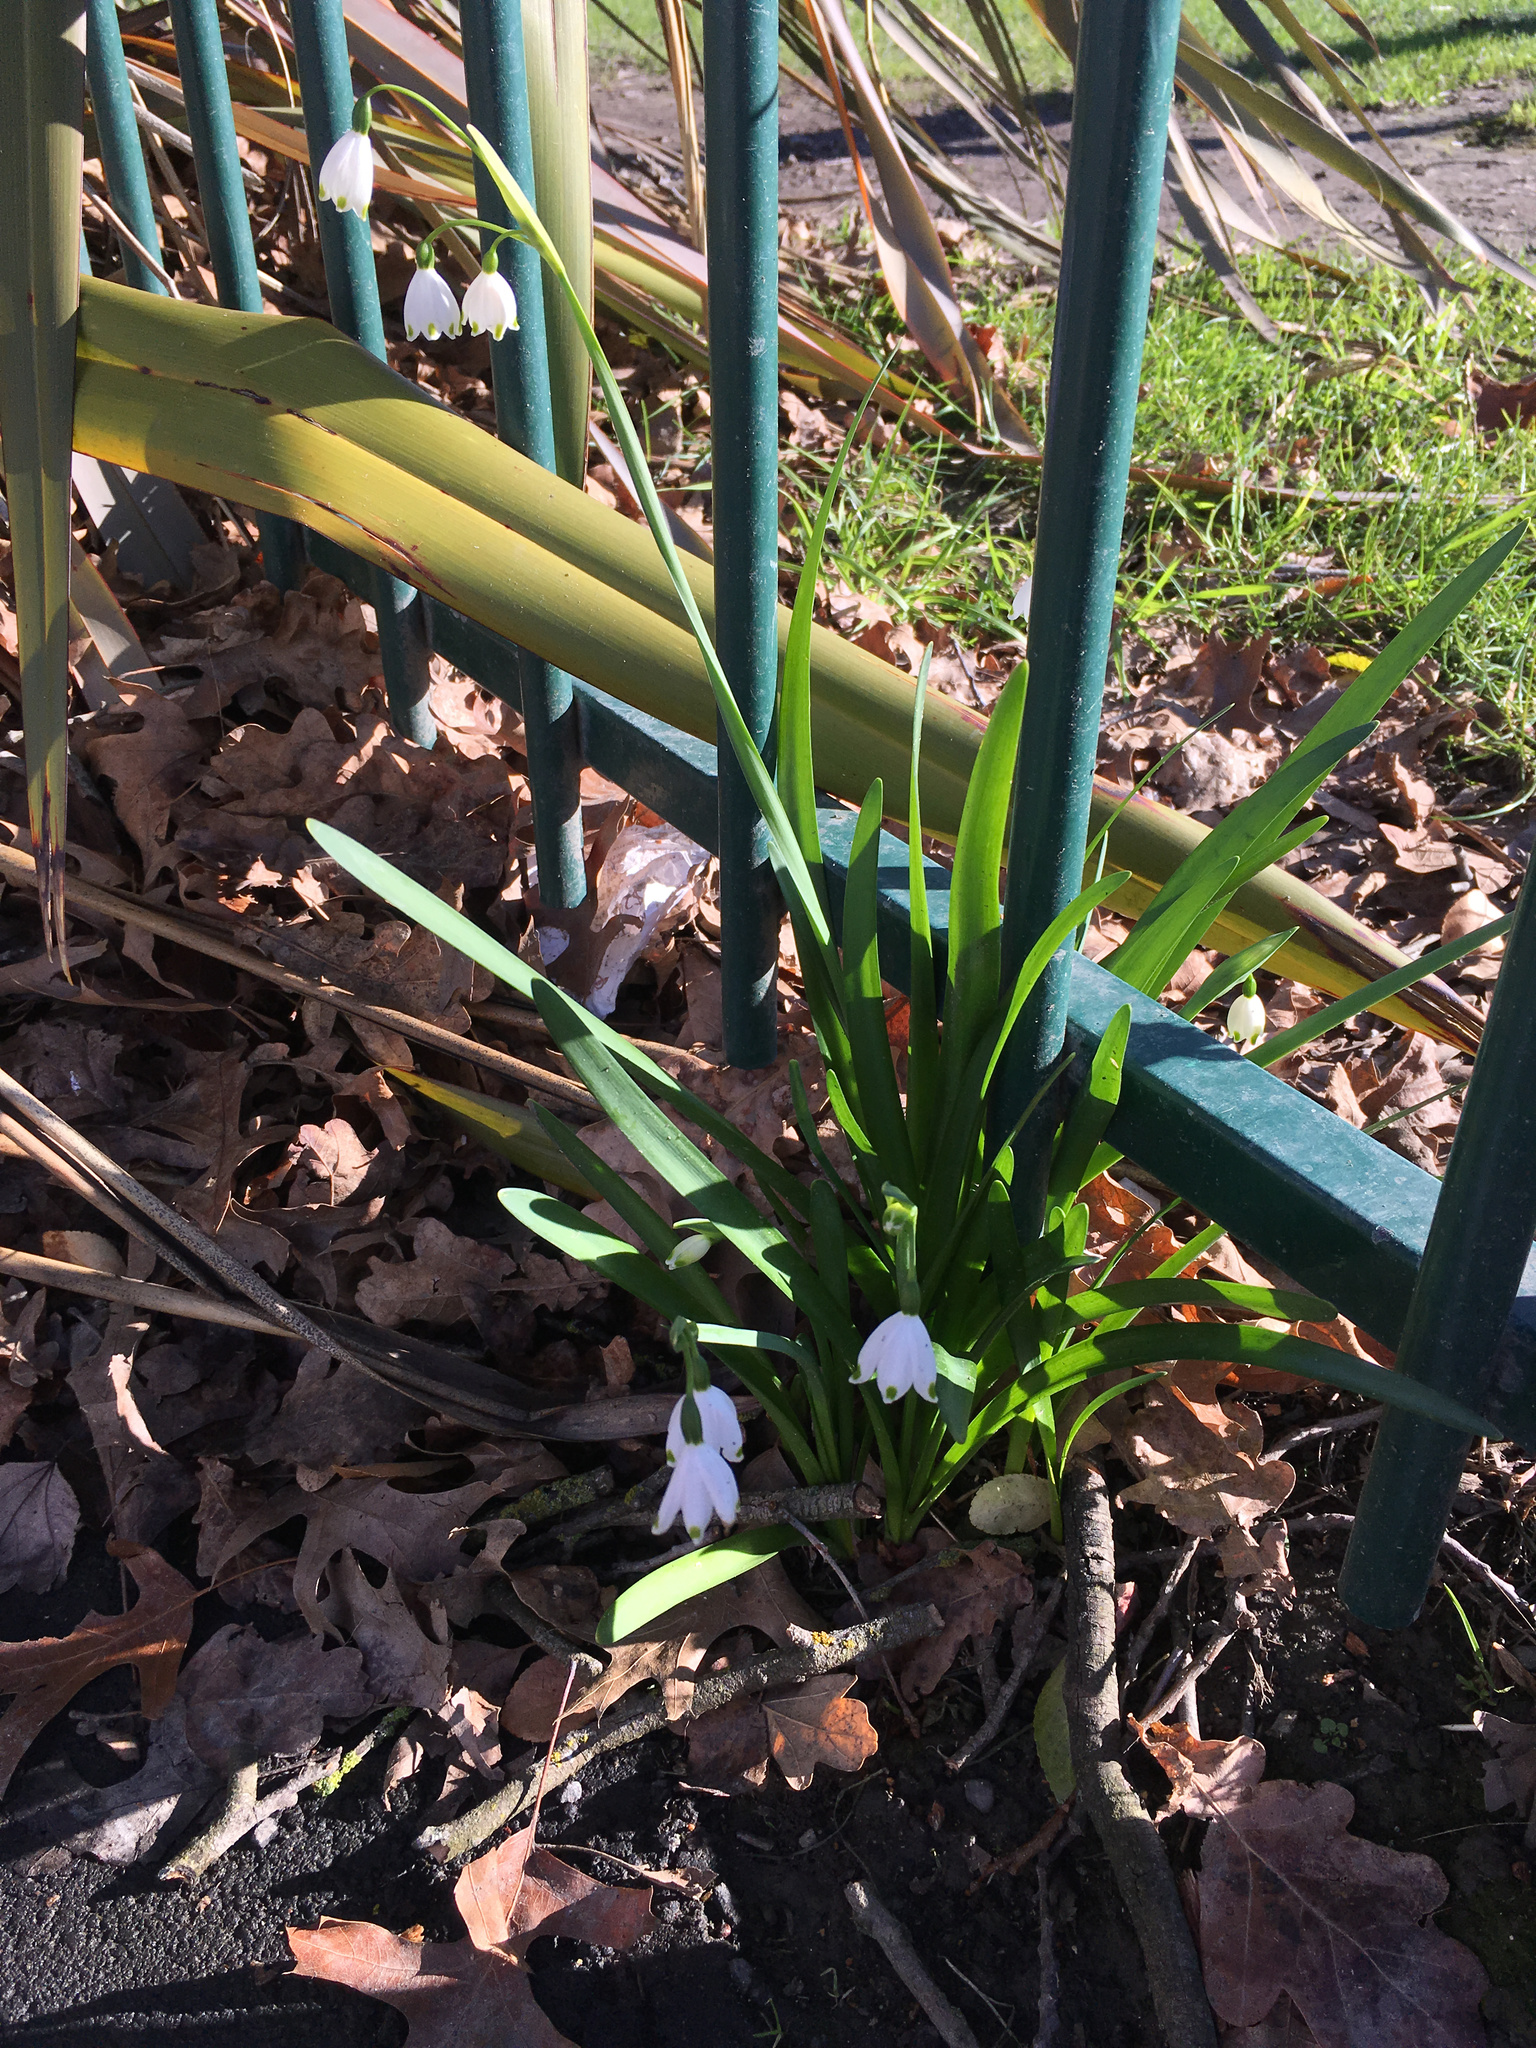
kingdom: Plantae
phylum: Tracheophyta
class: Liliopsida
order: Asparagales
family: Amaryllidaceae
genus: Leucojum
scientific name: Leucojum aestivum
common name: Summer snowflake
